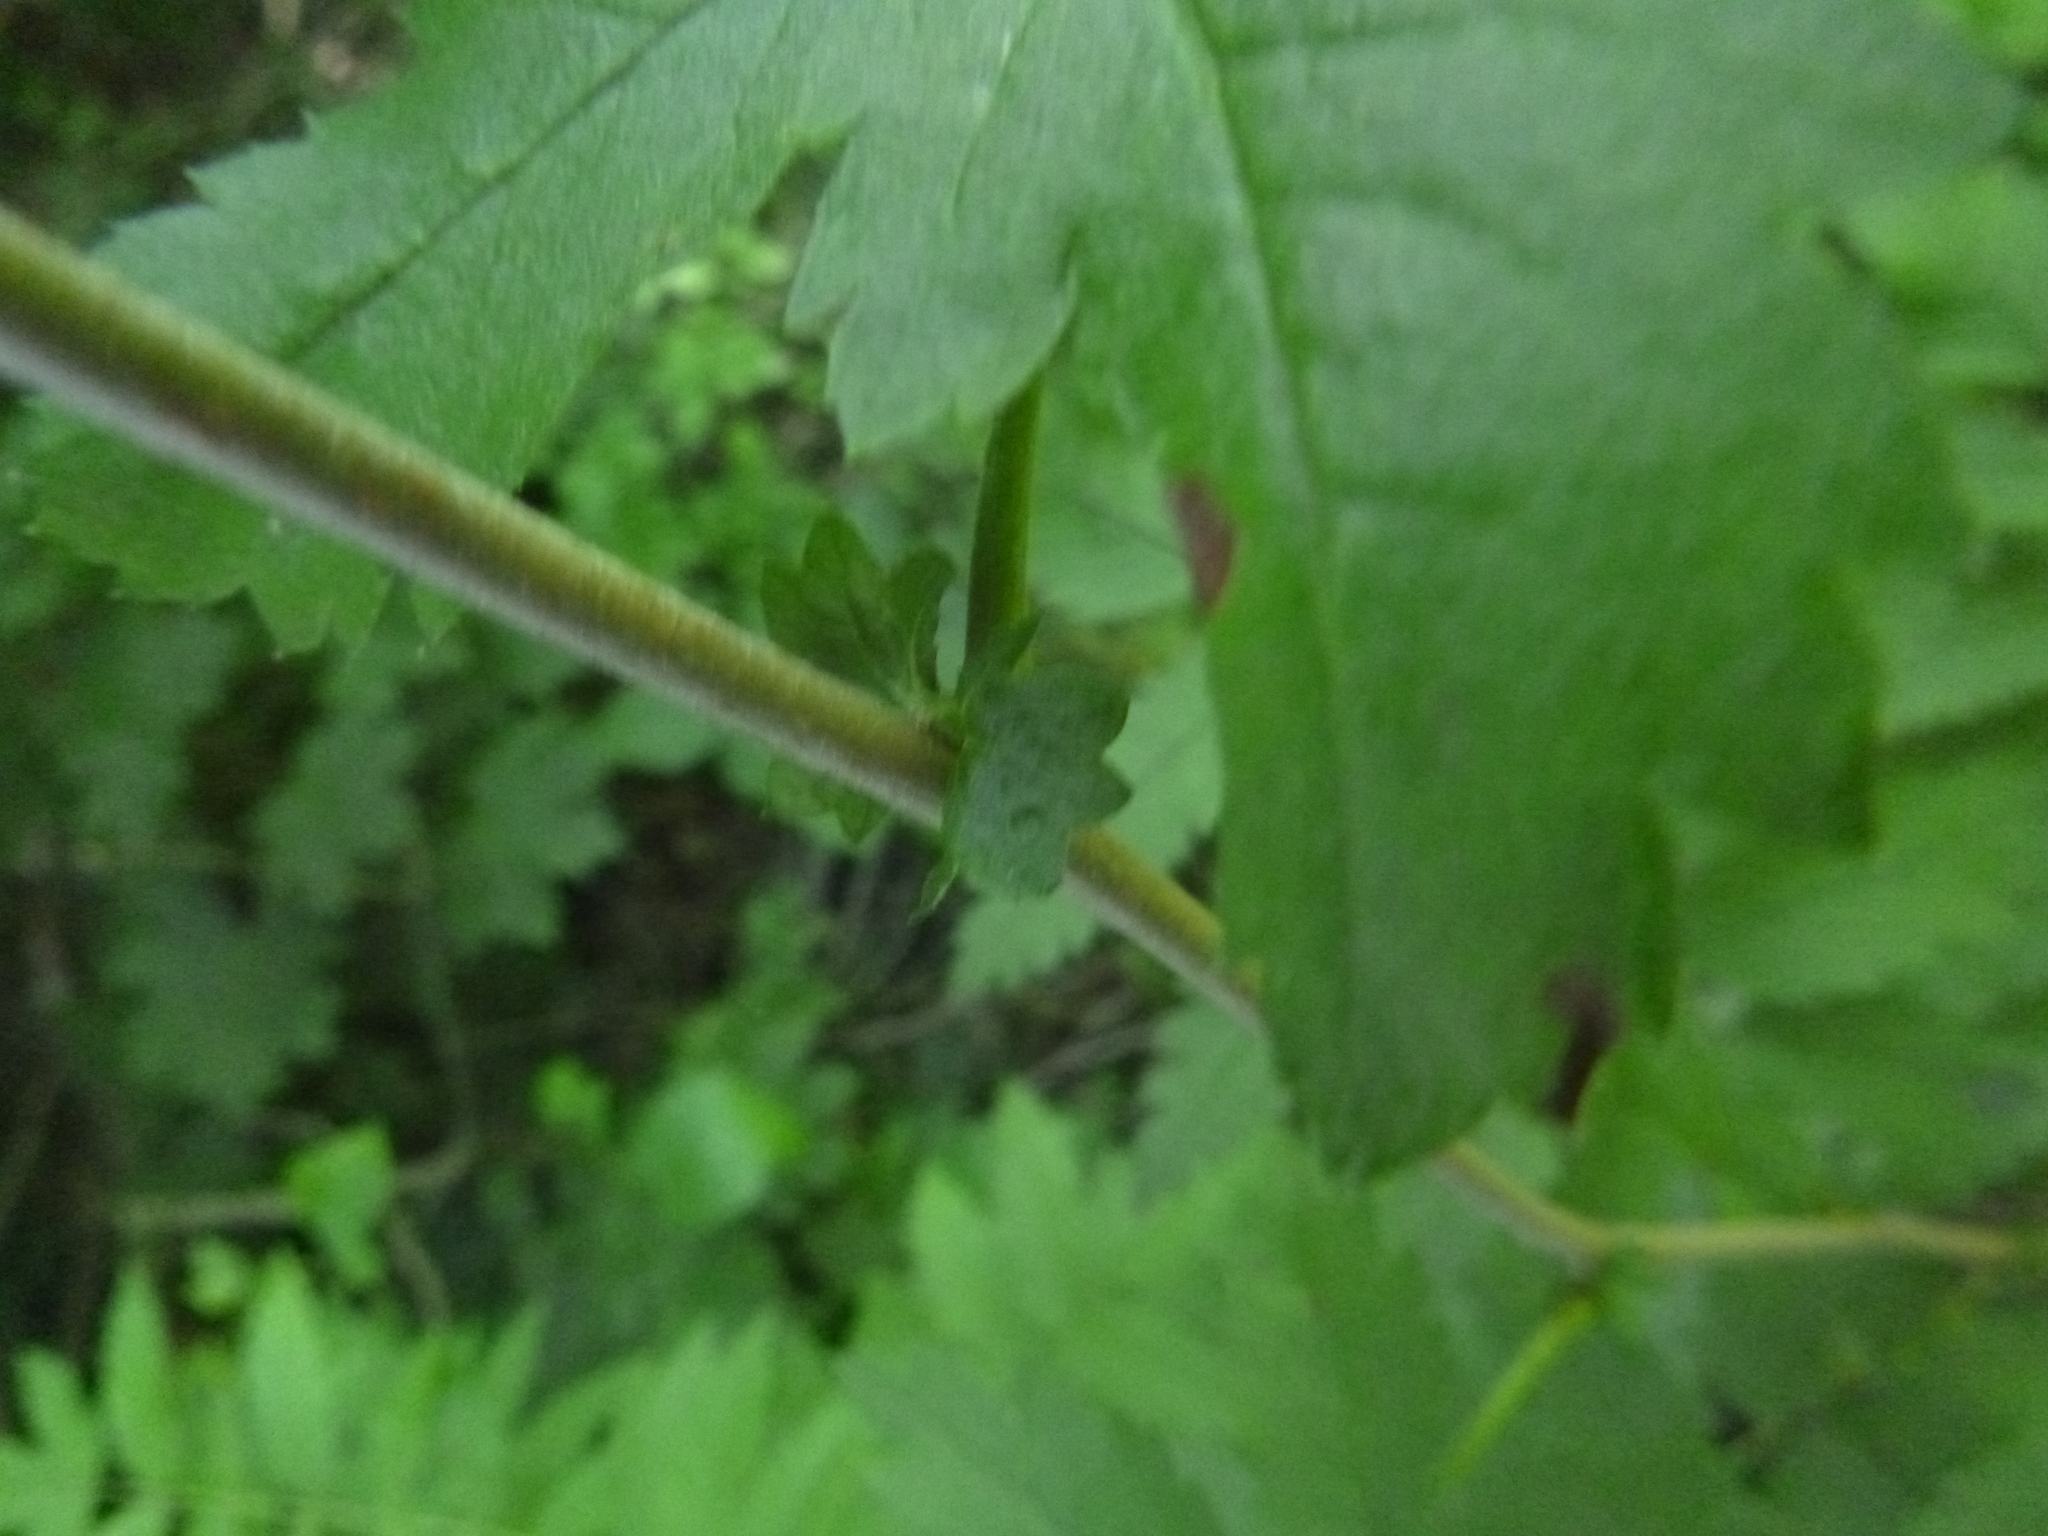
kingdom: Plantae
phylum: Tracheophyta
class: Magnoliopsida
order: Rosales
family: Rosaceae
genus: Sorbus
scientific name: Sorbus aucuparia
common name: Rowan
